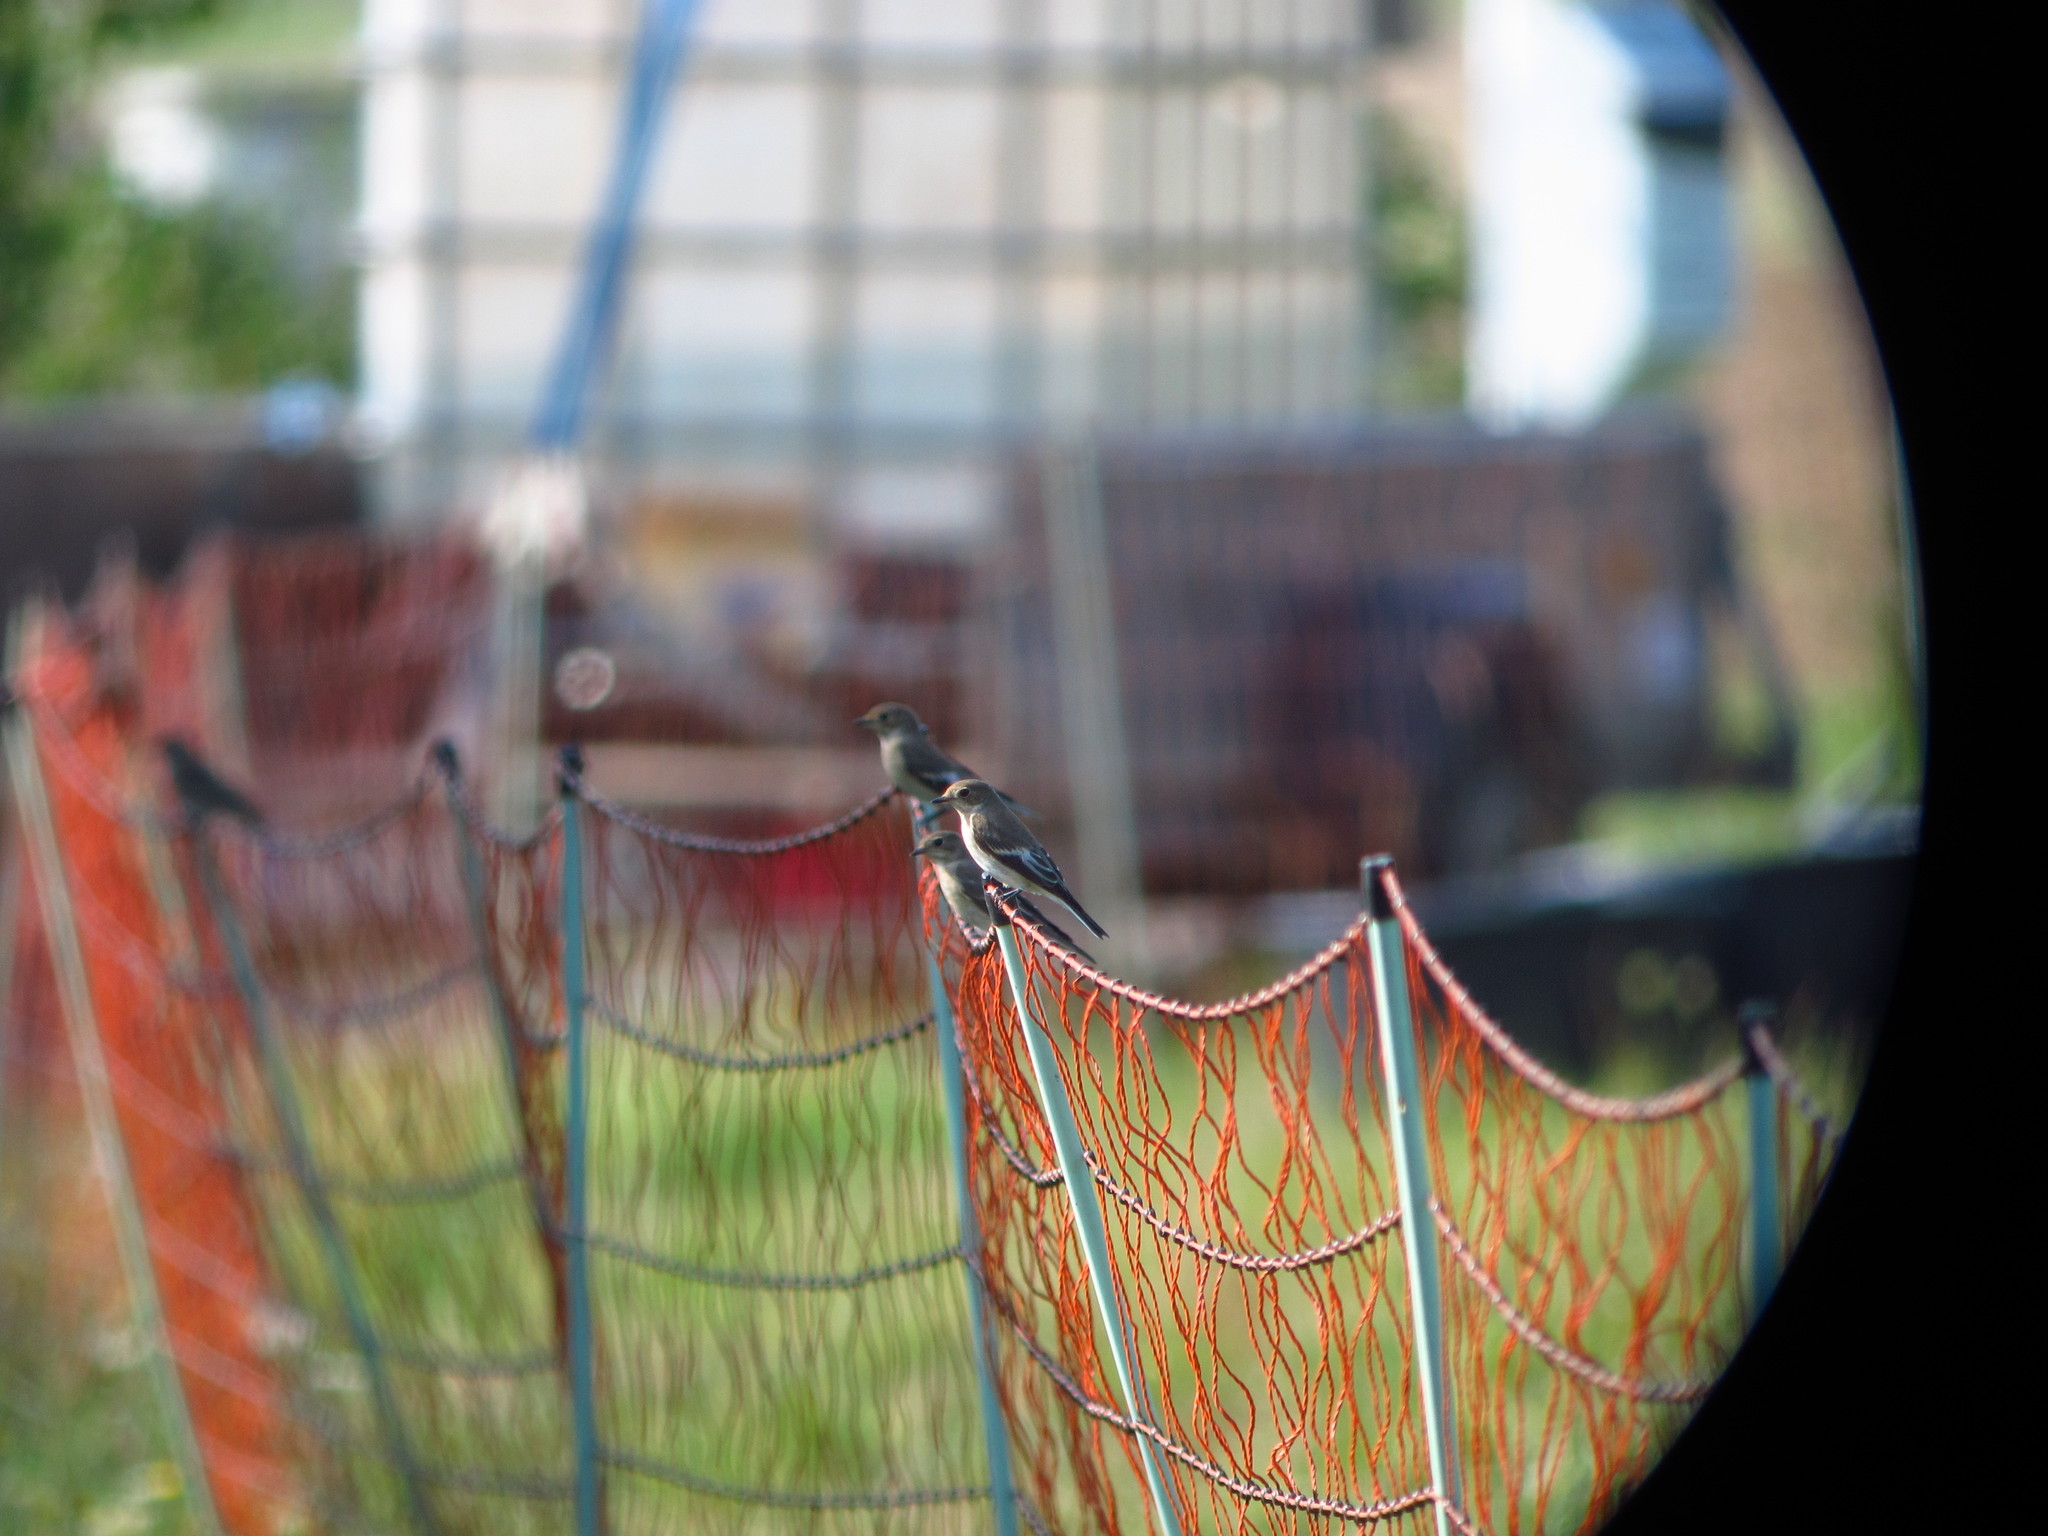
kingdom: Animalia
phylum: Chordata
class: Aves
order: Passeriformes
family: Muscicapidae
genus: Ficedula
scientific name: Ficedula hypoleuca
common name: European pied flycatcher
